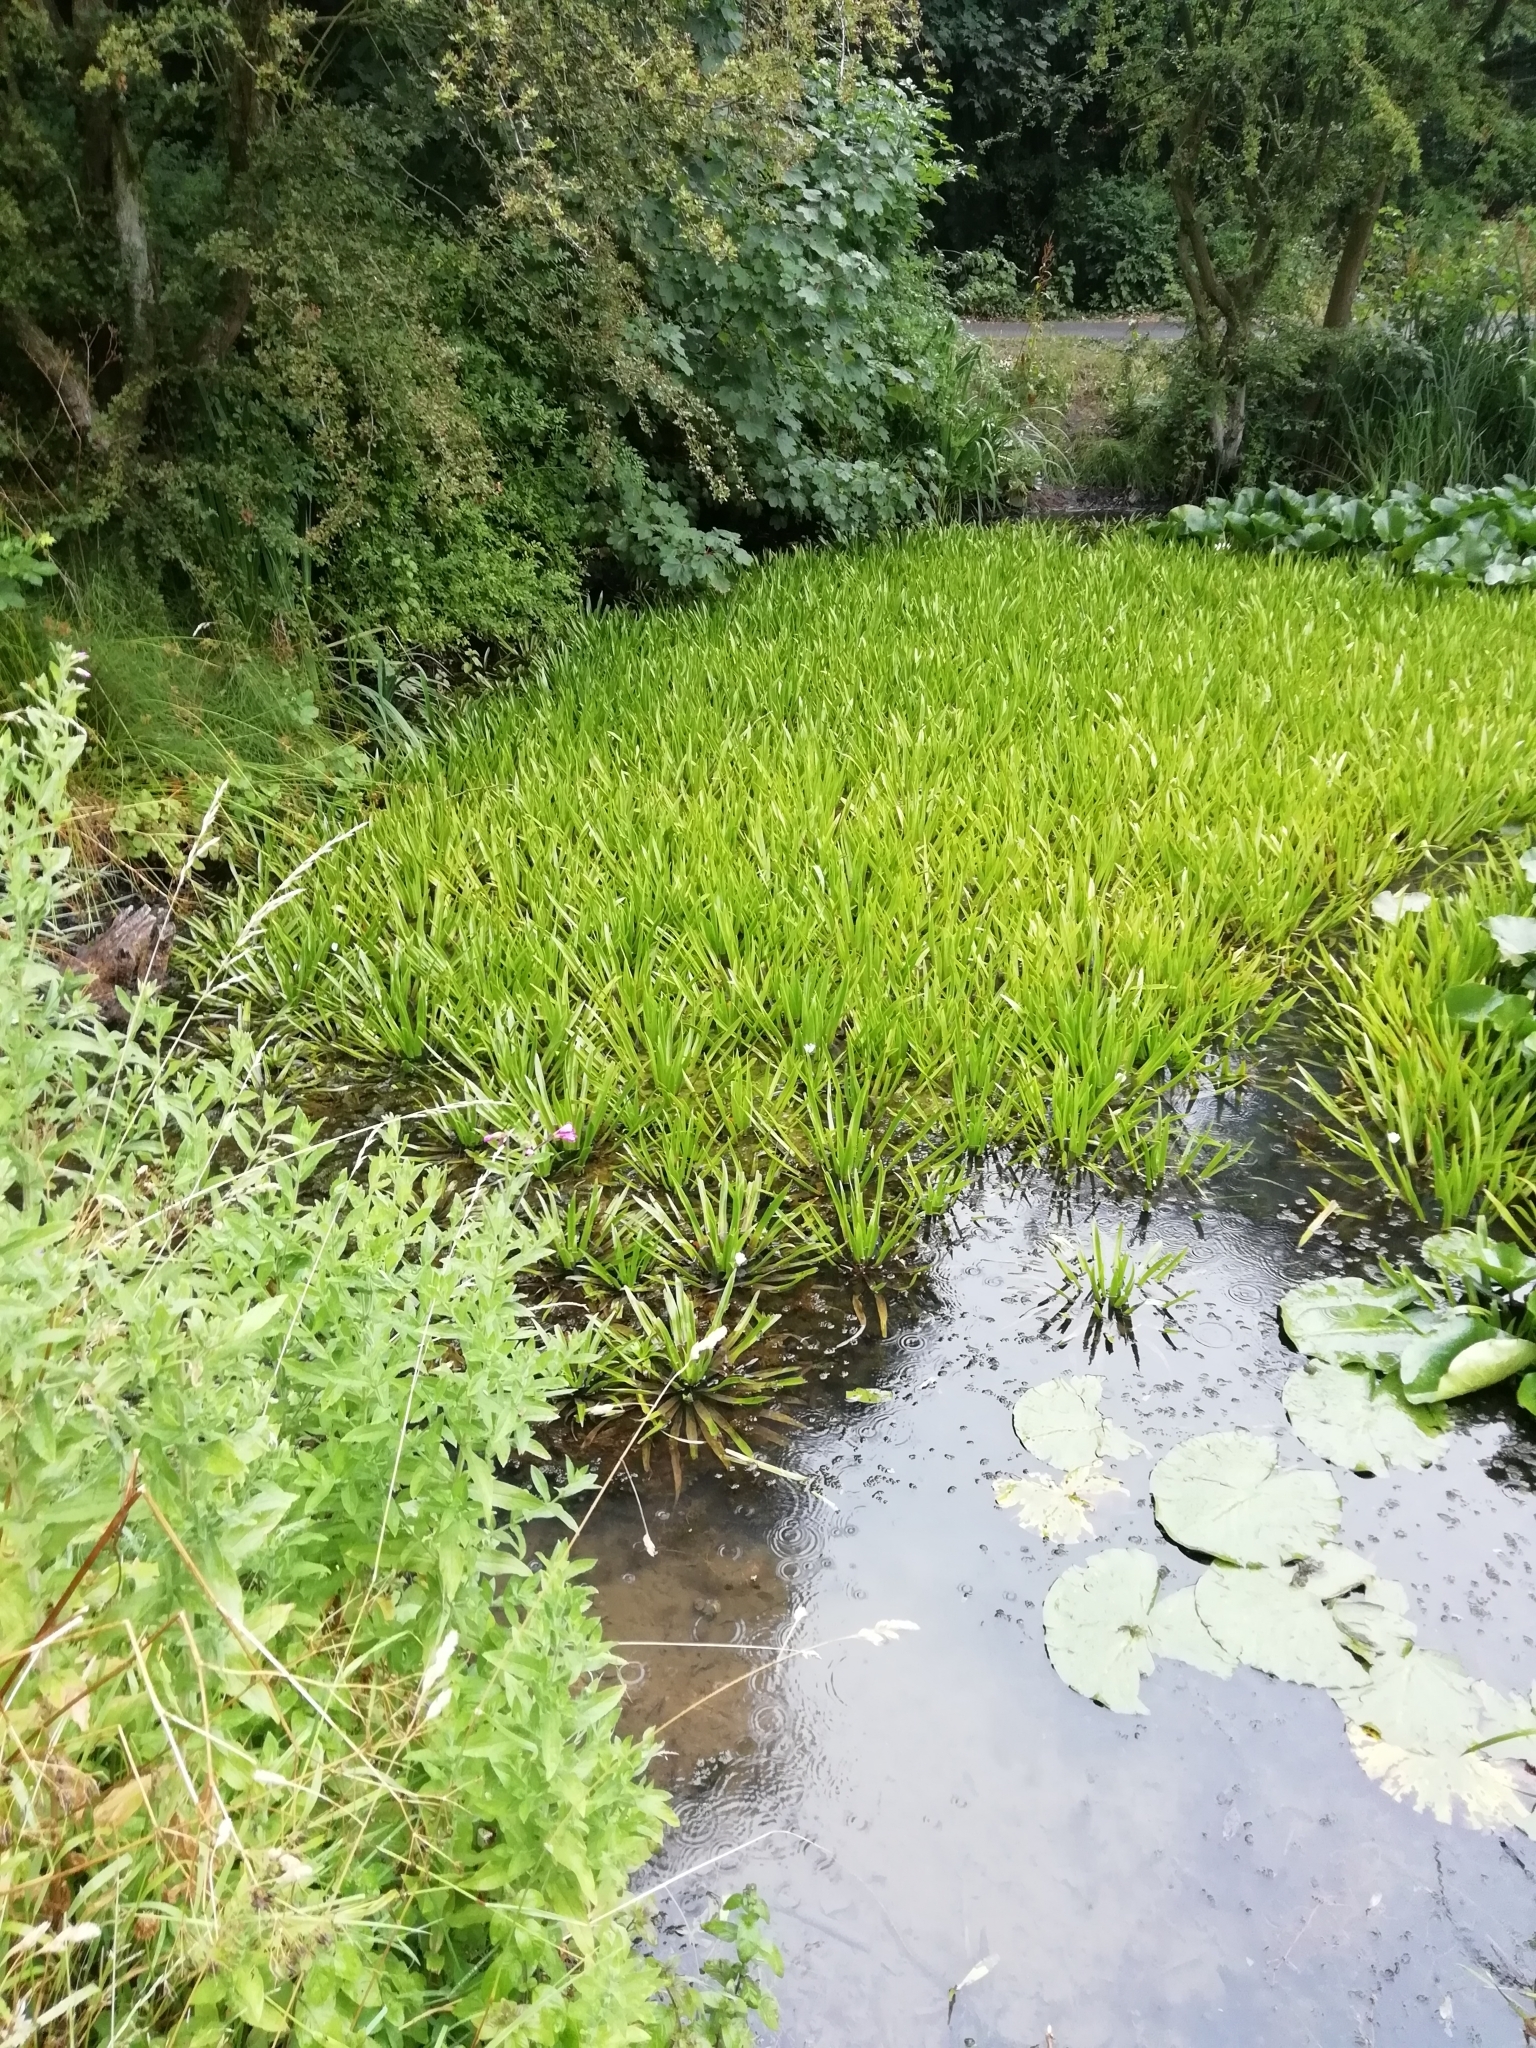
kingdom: Plantae
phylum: Tracheophyta
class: Liliopsida
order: Alismatales
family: Hydrocharitaceae
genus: Stratiotes
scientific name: Stratiotes aloides
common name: Water-soldier
